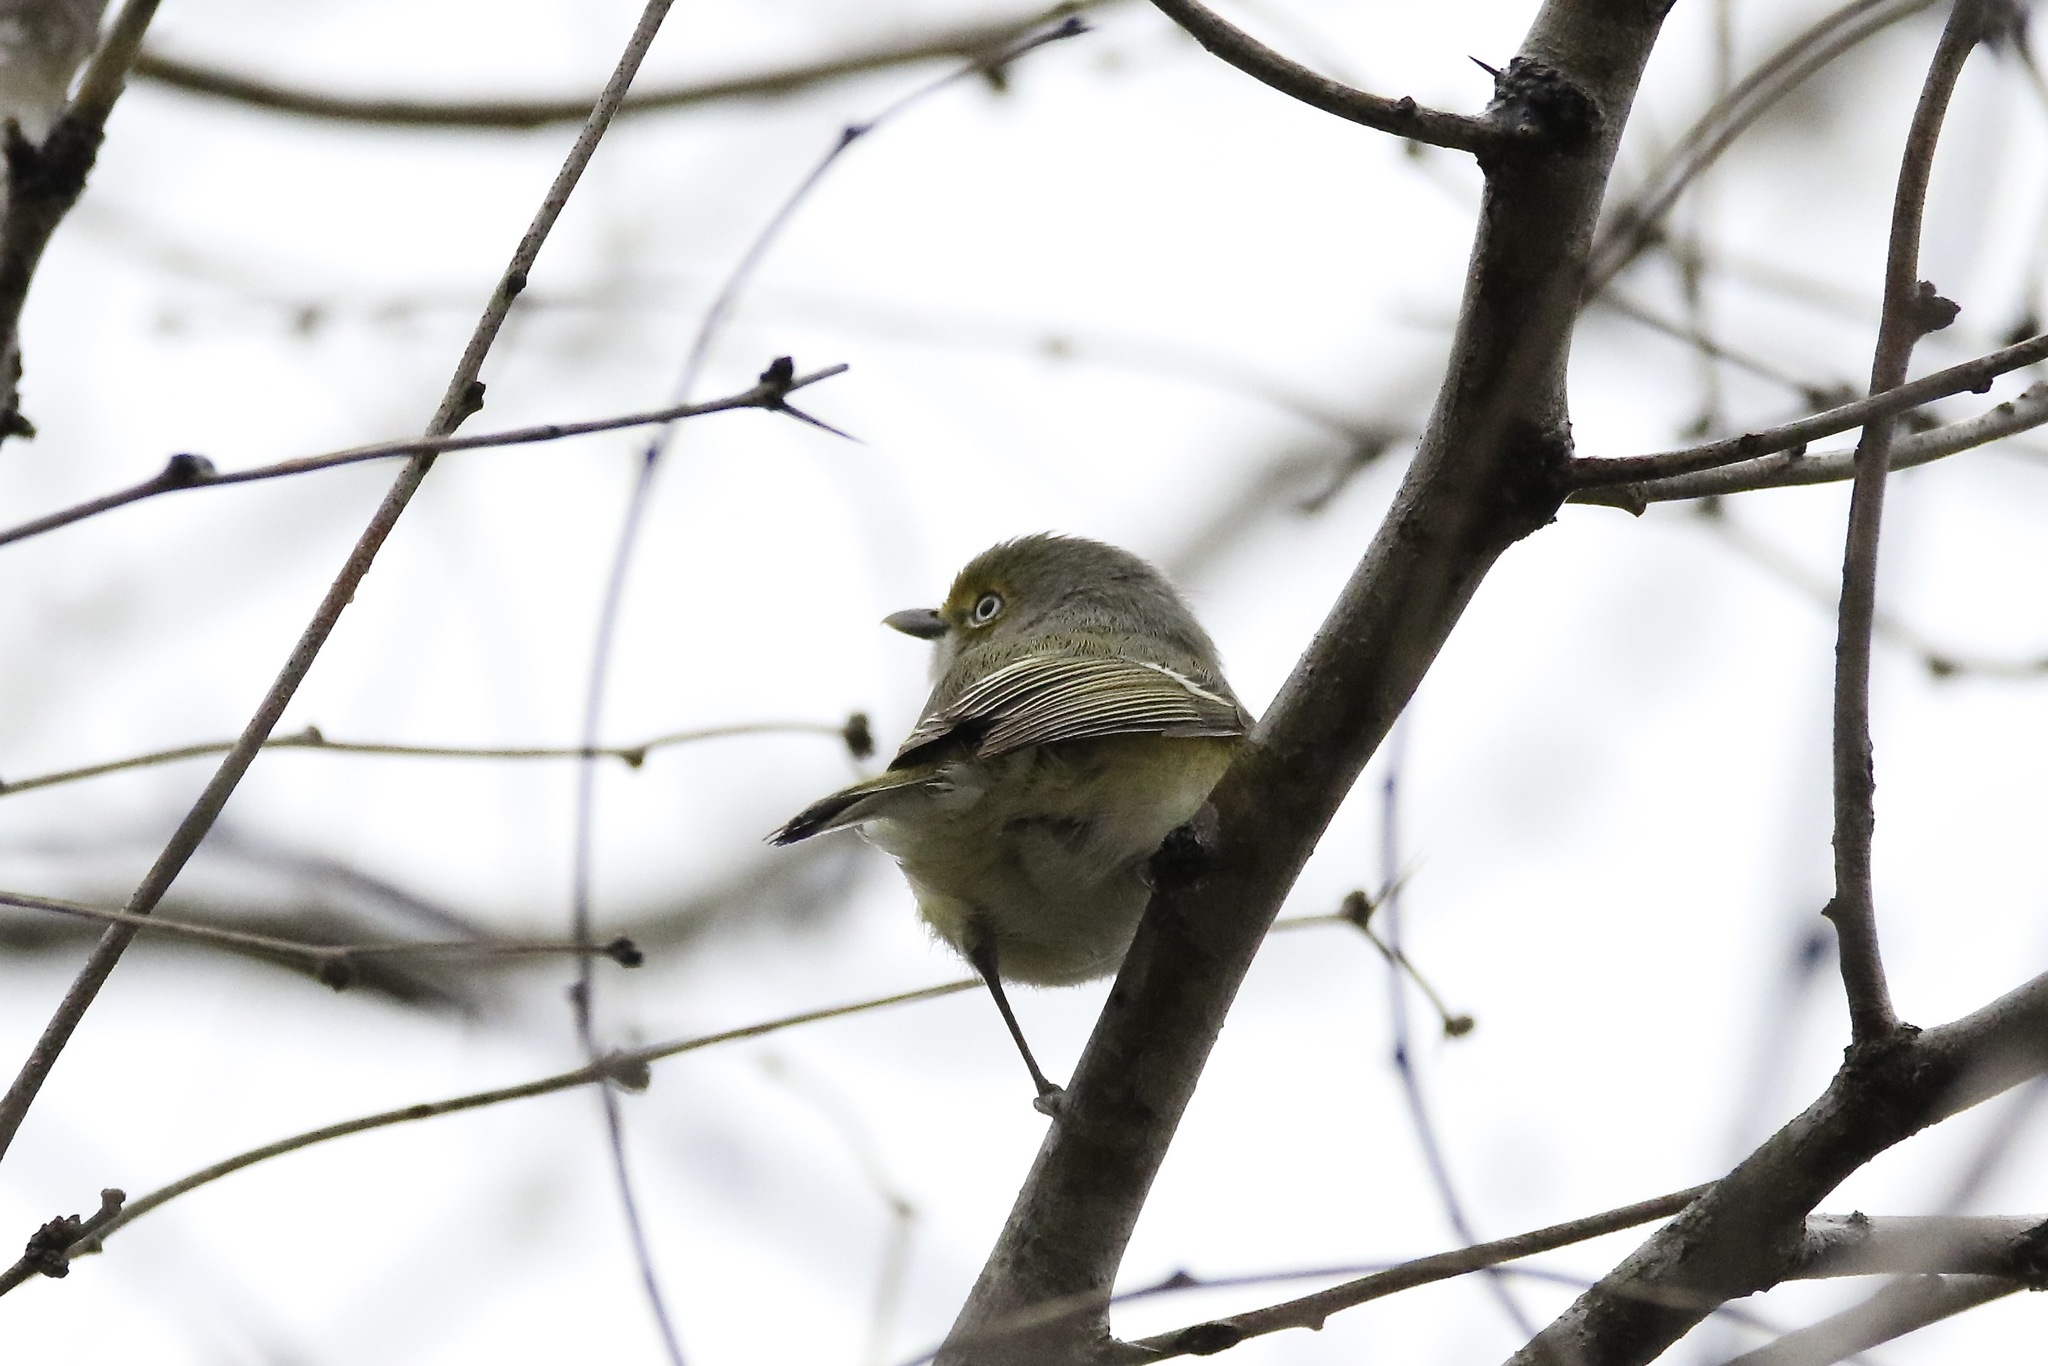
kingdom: Animalia
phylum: Chordata
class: Aves
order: Passeriformes
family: Vireonidae
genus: Vireo
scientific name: Vireo griseus
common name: White-eyed vireo
